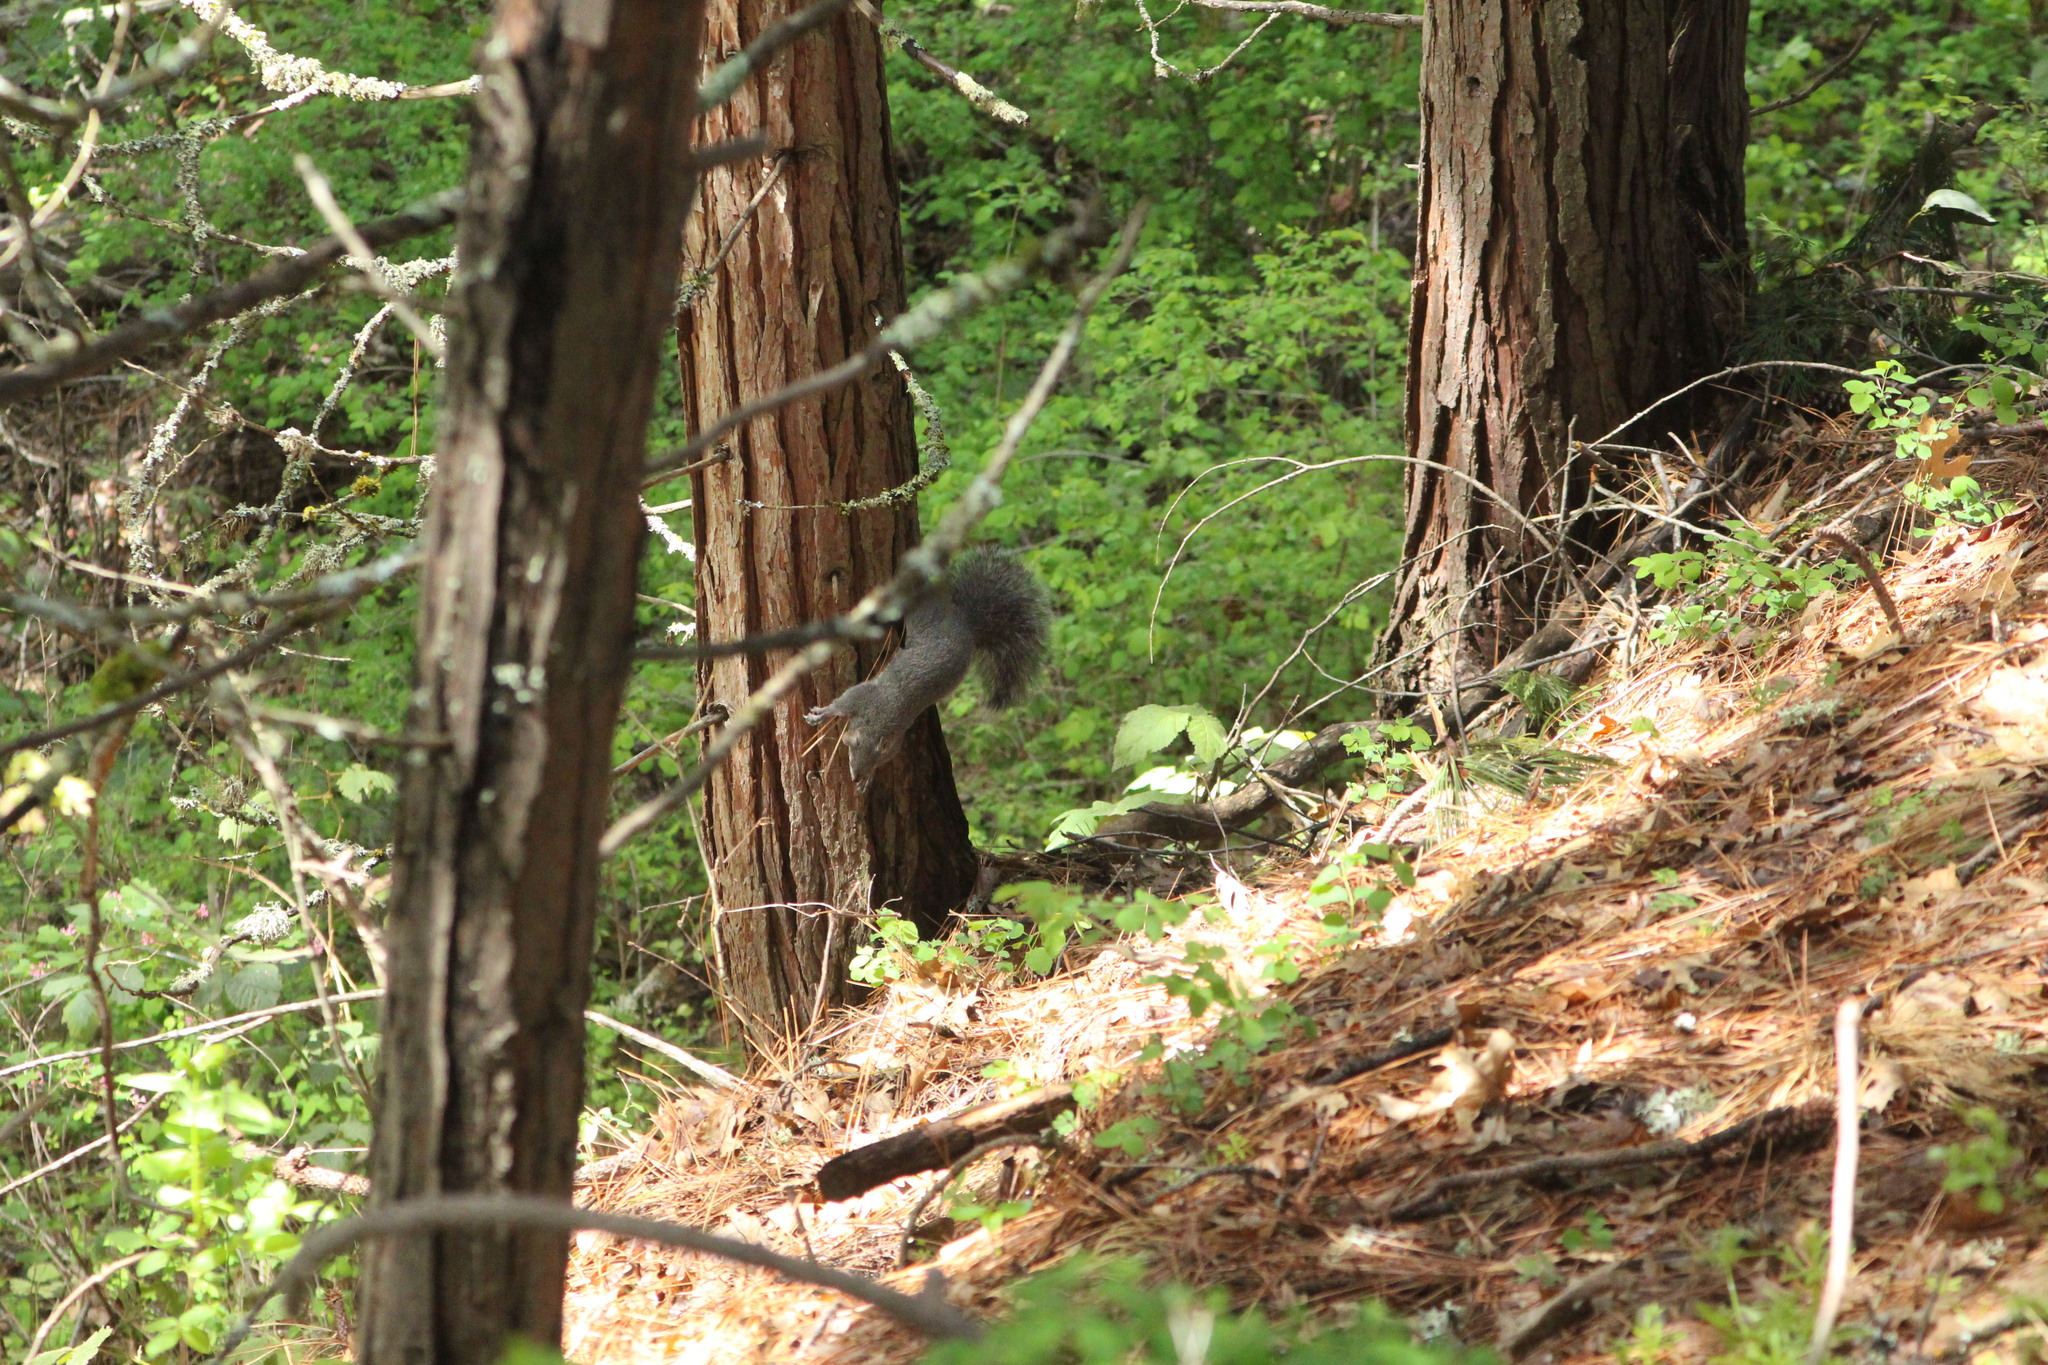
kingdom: Animalia
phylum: Chordata
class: Mammalia
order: Rodentia
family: Sciuridae
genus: Sciurus
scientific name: Sciurus griseus
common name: Western gray squirrel
